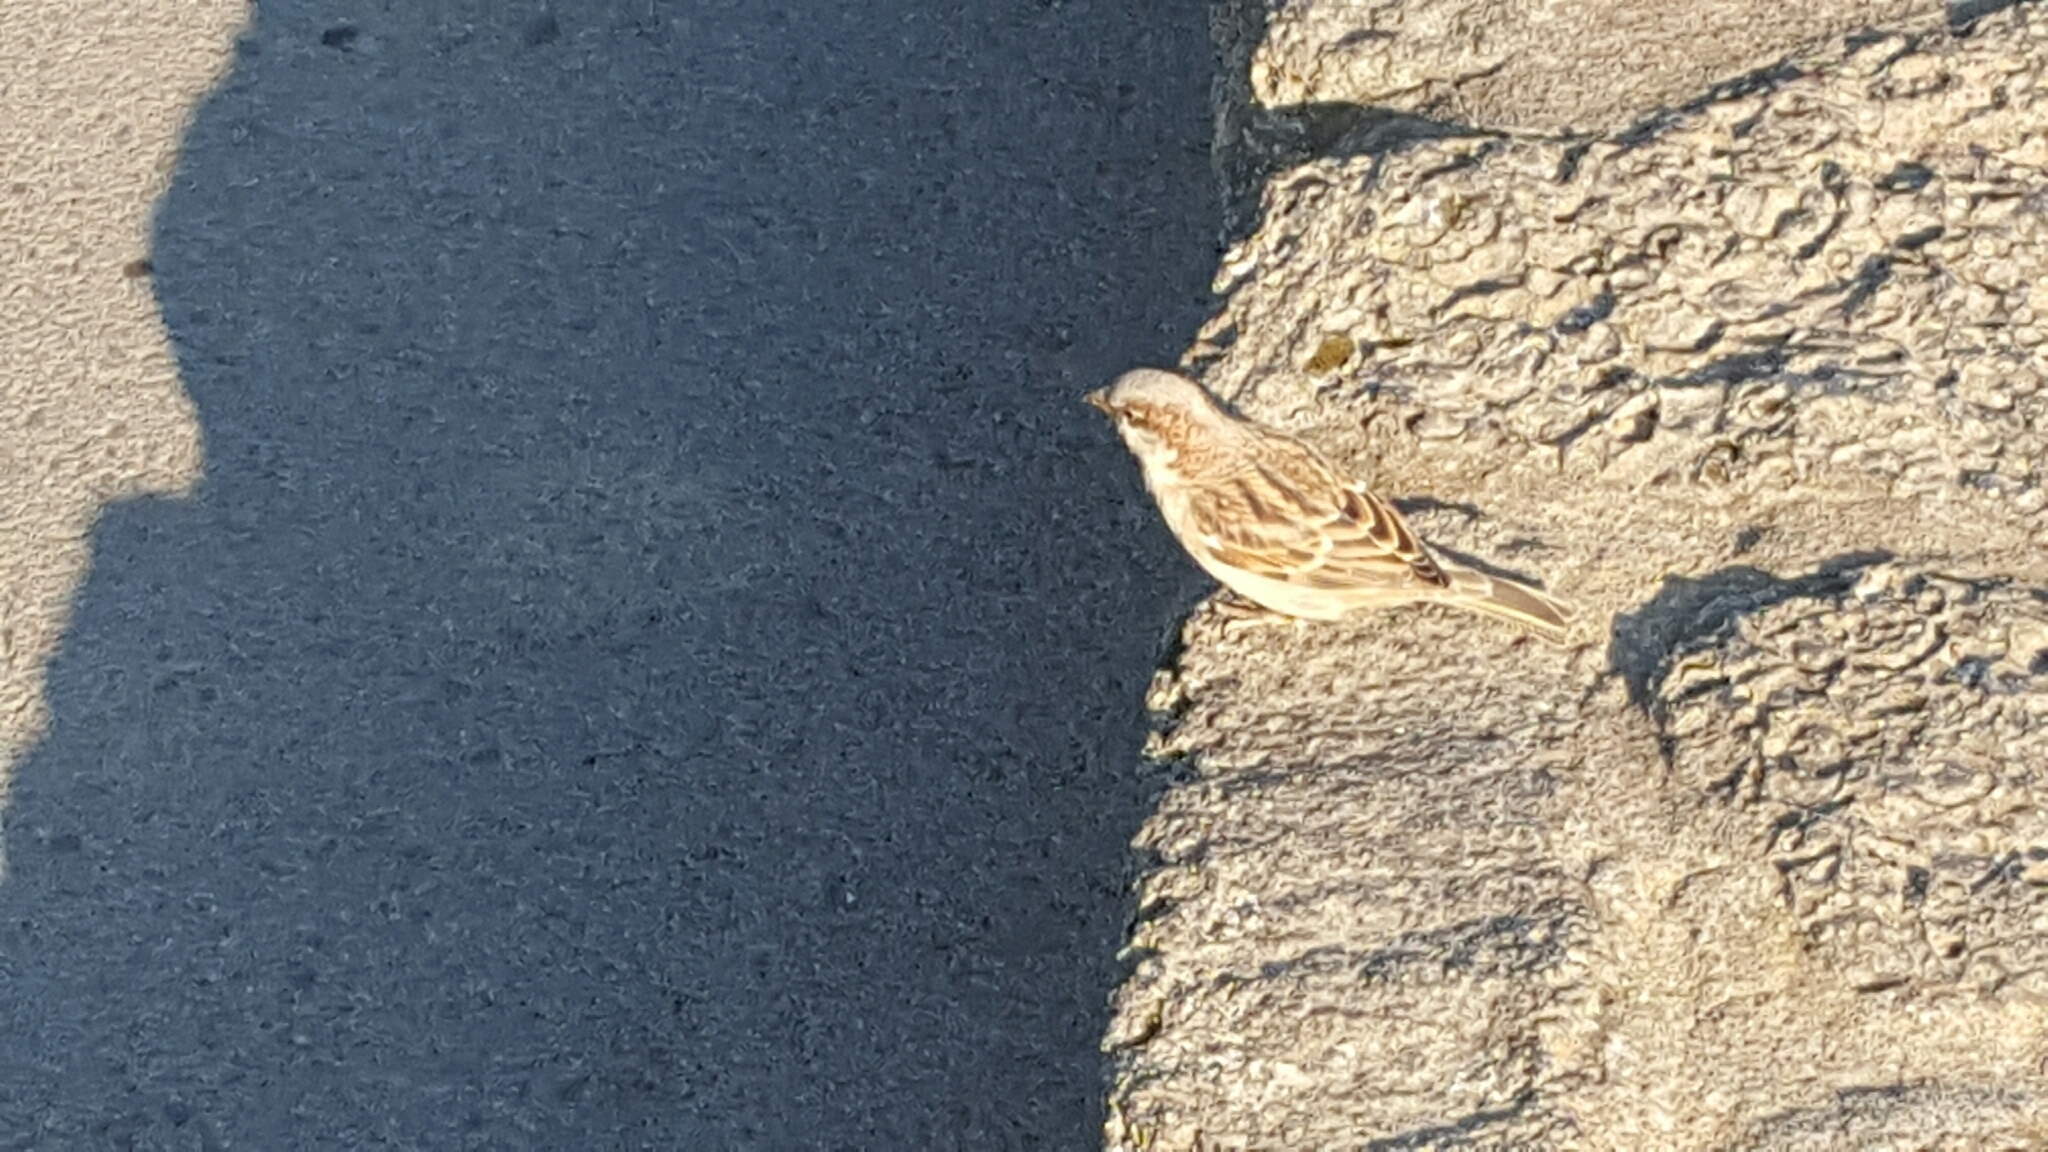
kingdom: Animalia
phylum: Chordata
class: Aves
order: Passeriformes
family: Passeridae
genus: Passer
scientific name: Passer domesticus
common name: House sparrow
